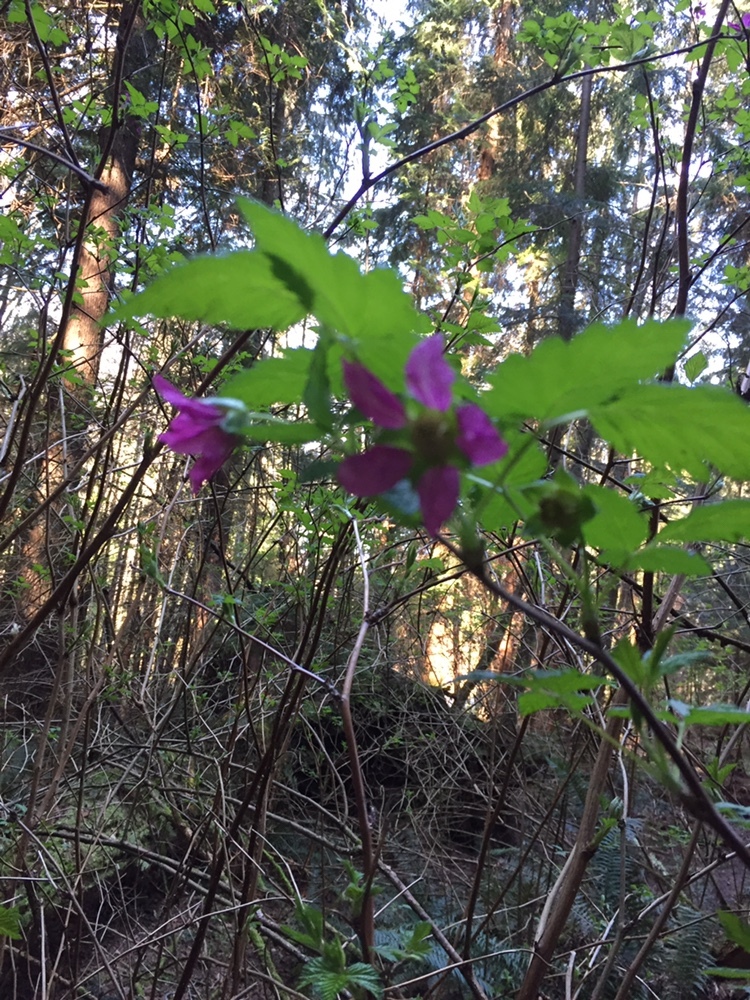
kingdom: Plantae
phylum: Tracheophyta
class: Magnoliopsida
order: Rosales
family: Rosaceae
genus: Rubus
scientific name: Rubus spectabilis
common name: Salmonberry
